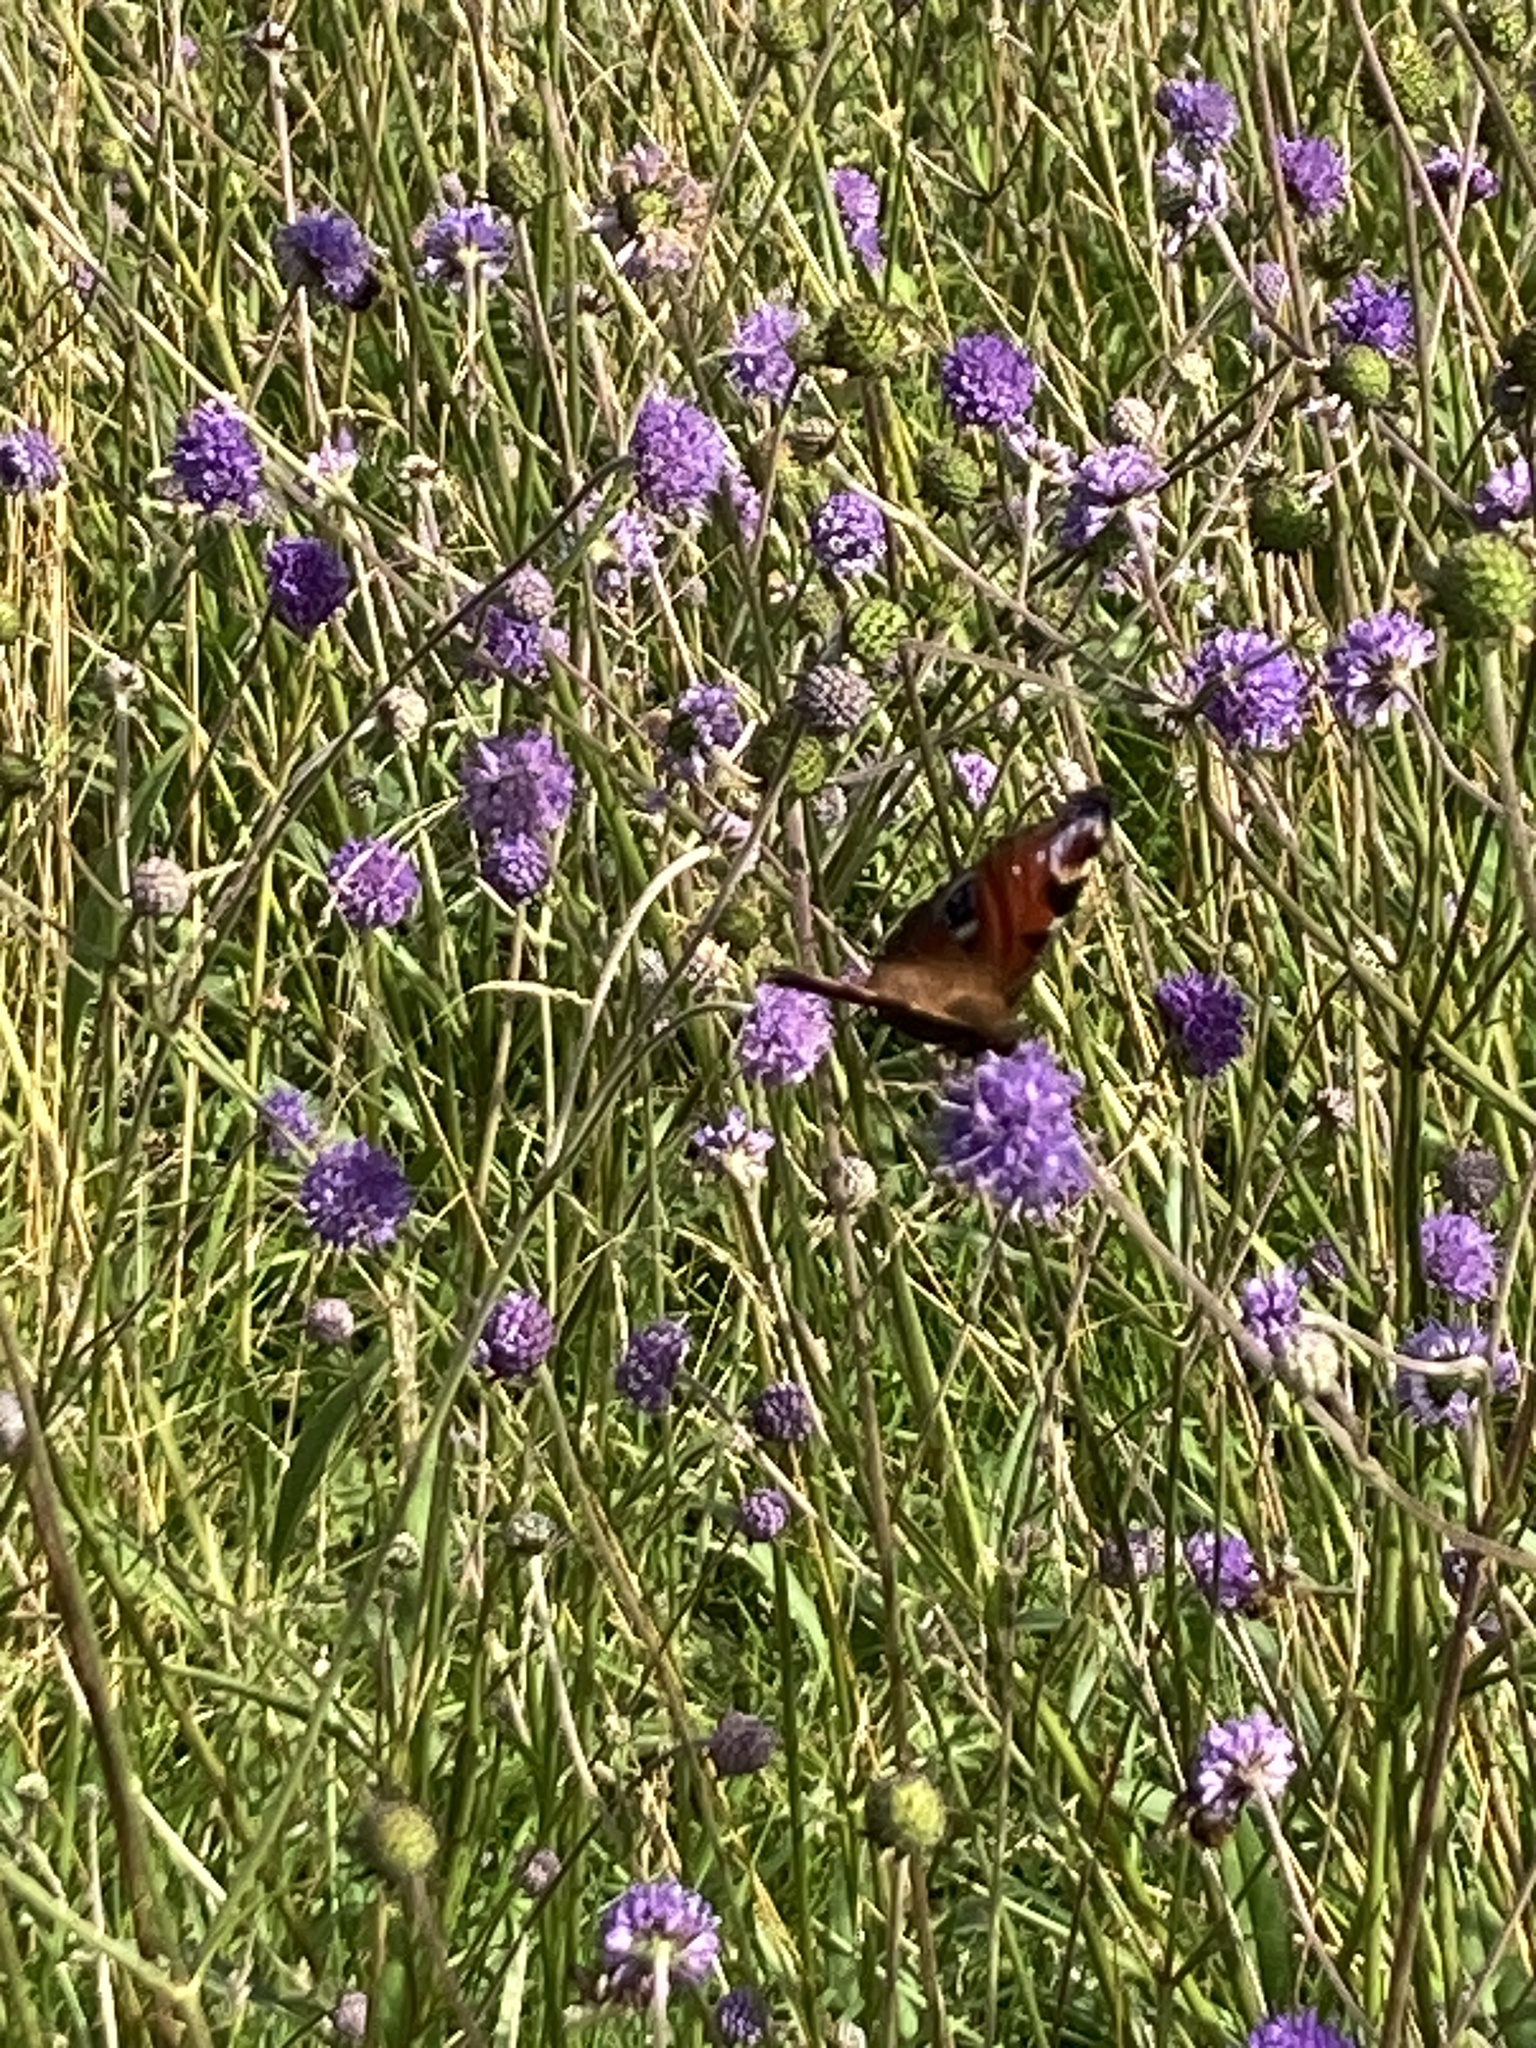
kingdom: Animalia
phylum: Arthropoda
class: Insecta
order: Lepidoptera
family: Nymphalidae
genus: Aglais
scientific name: Aglais io
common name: Peacock
